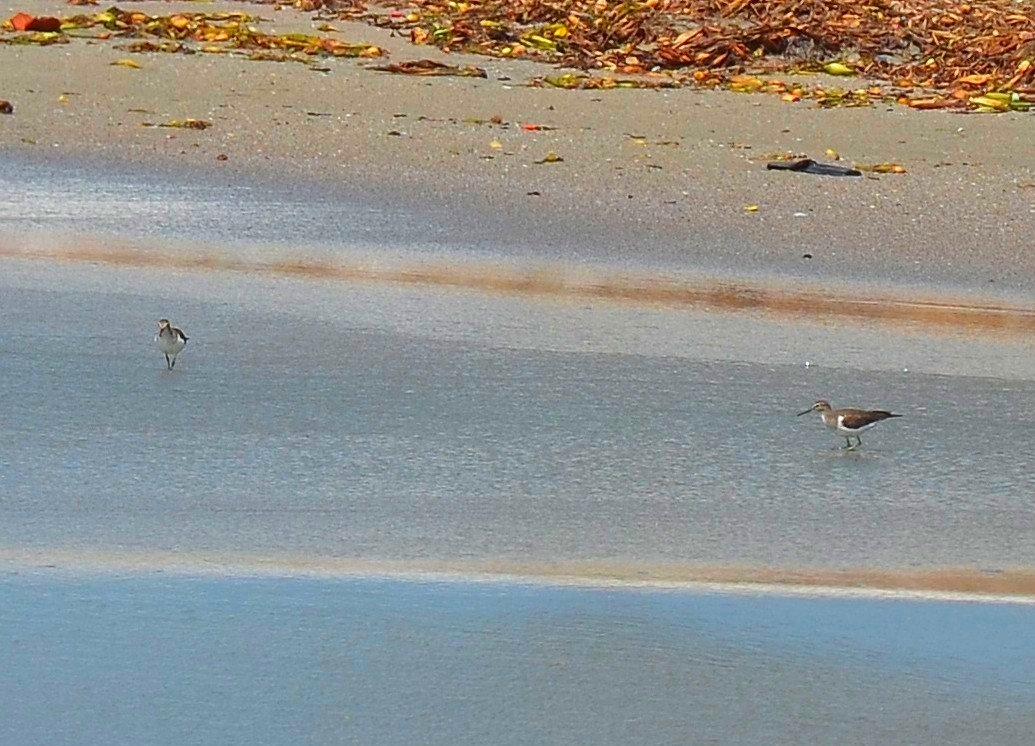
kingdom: Animalia
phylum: Chordata
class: Aves
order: Charadriiformes
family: Scolopacidae
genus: Actitis
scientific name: Actitis hypoleucos
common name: Common sandpiper
